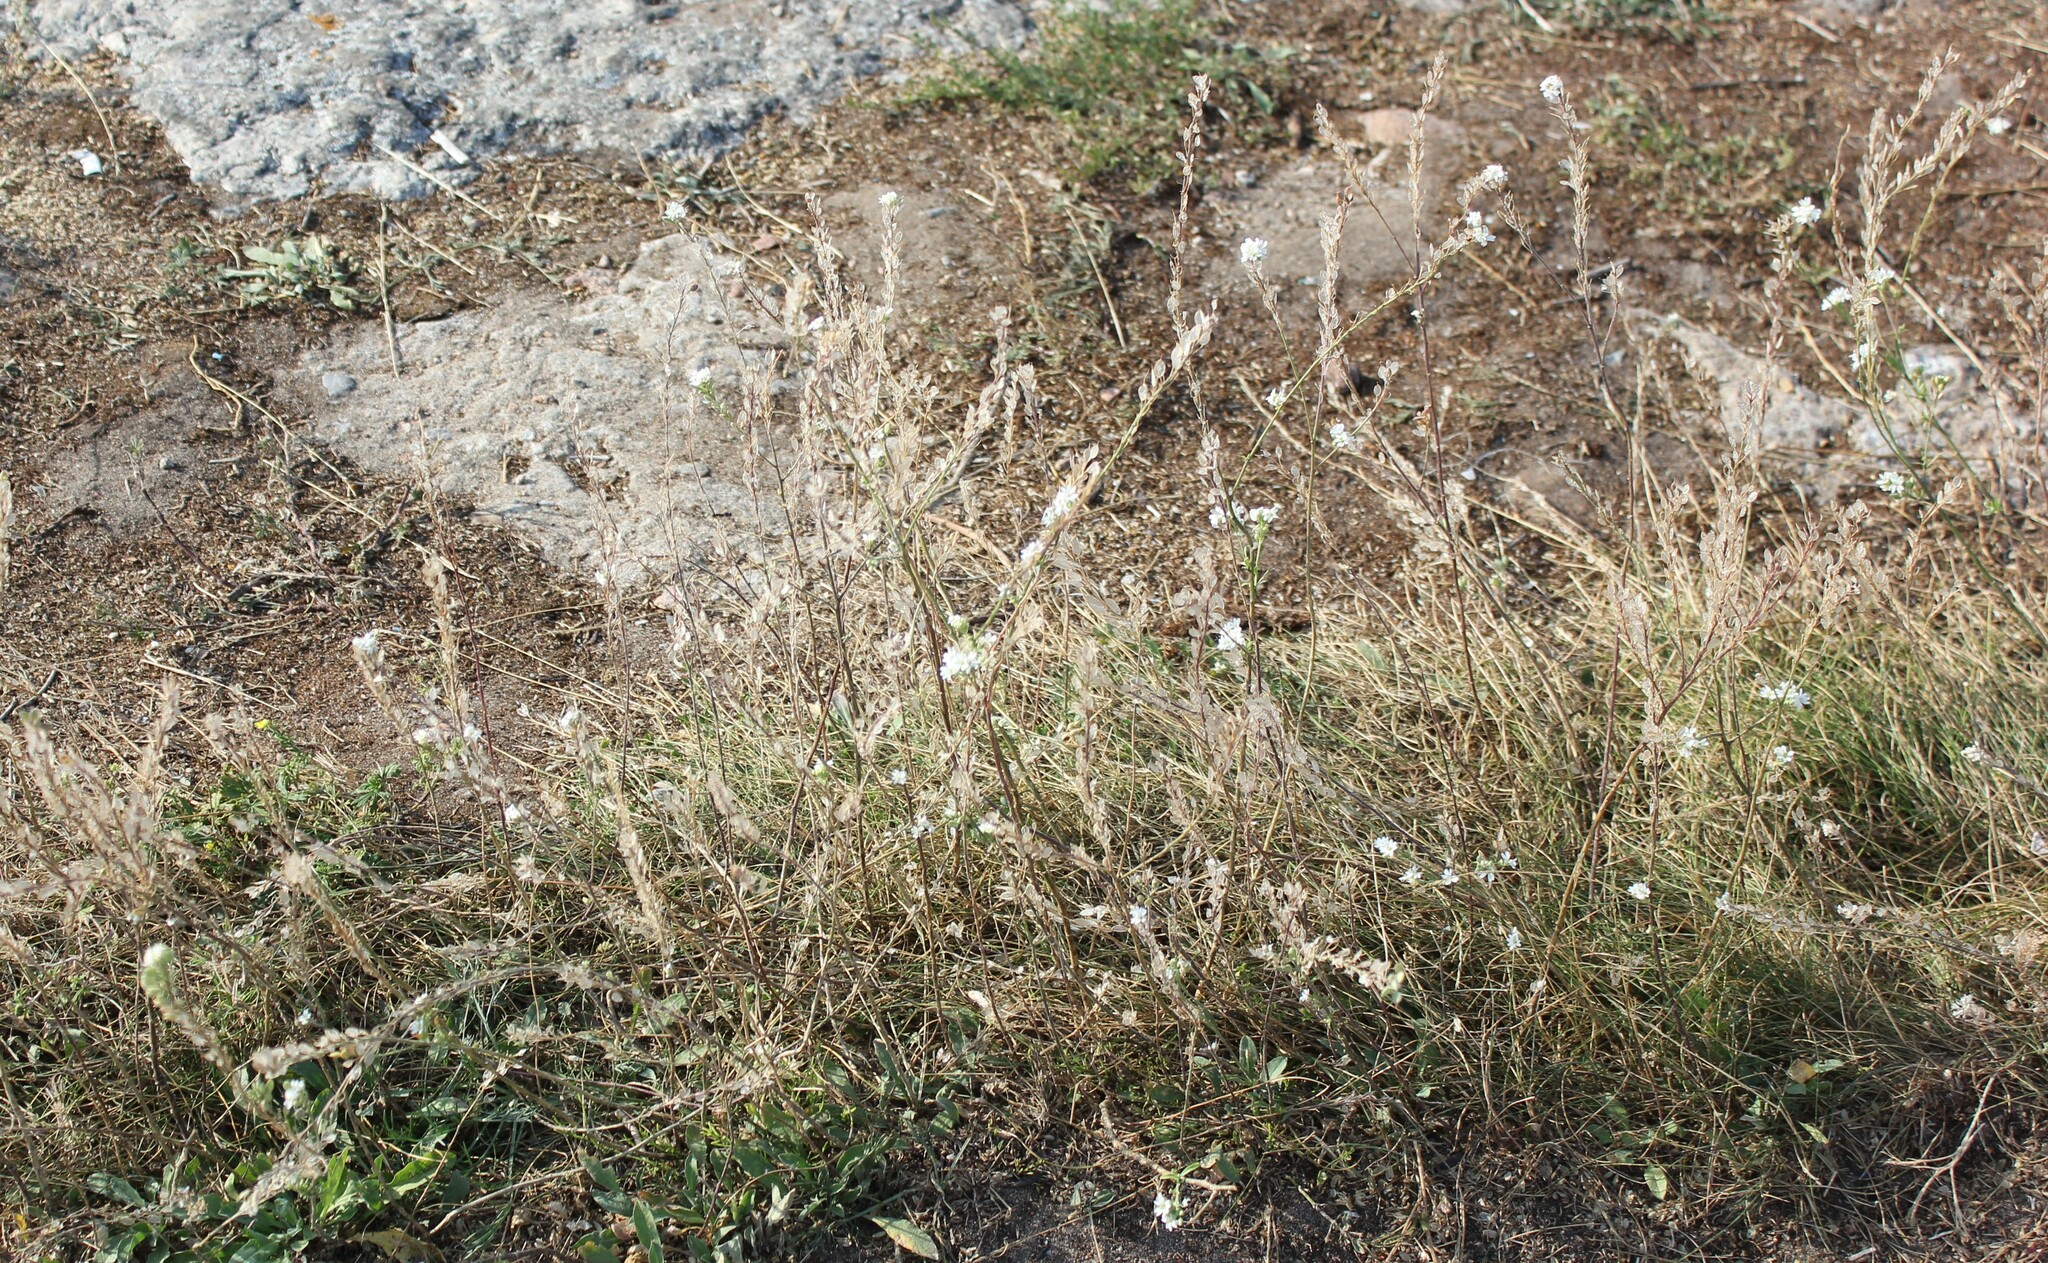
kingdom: Plantae
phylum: Tracheophyta
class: Magnoliopsida
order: Brassicales
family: Brassicaceae
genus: Berteroa
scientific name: Berteroa incana
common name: Hoary alison
